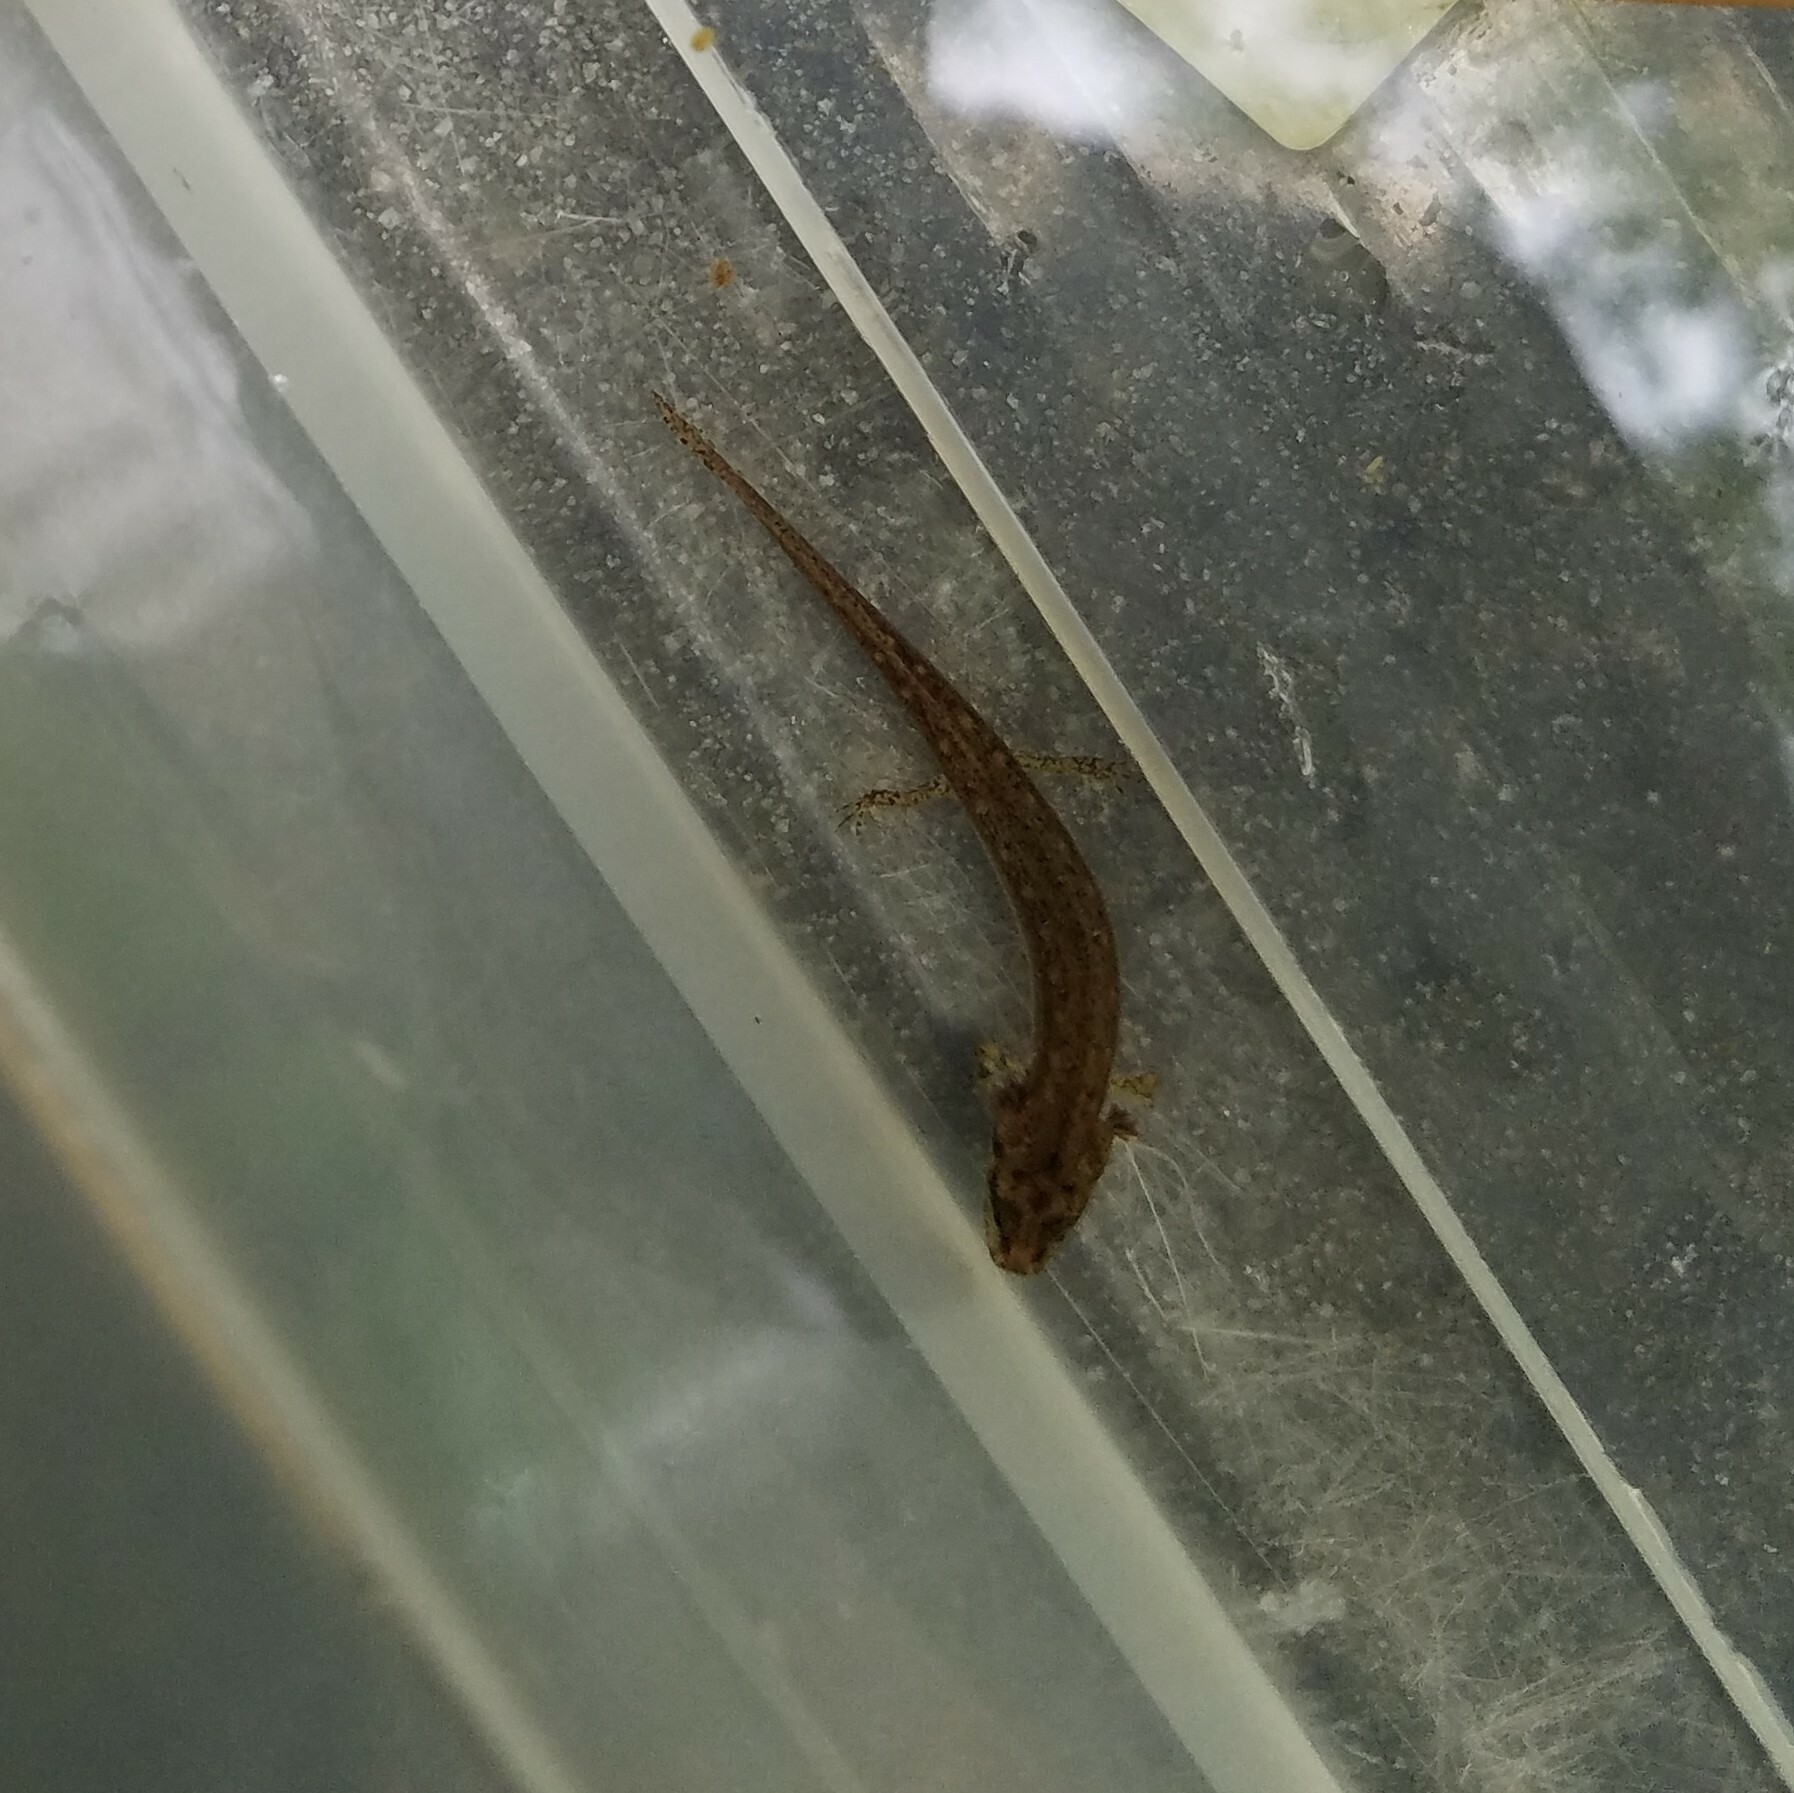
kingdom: Animalia
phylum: Chordata
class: Amphibia
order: Caudata
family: Plethodontidae
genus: Eurycea
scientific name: Eurycea
